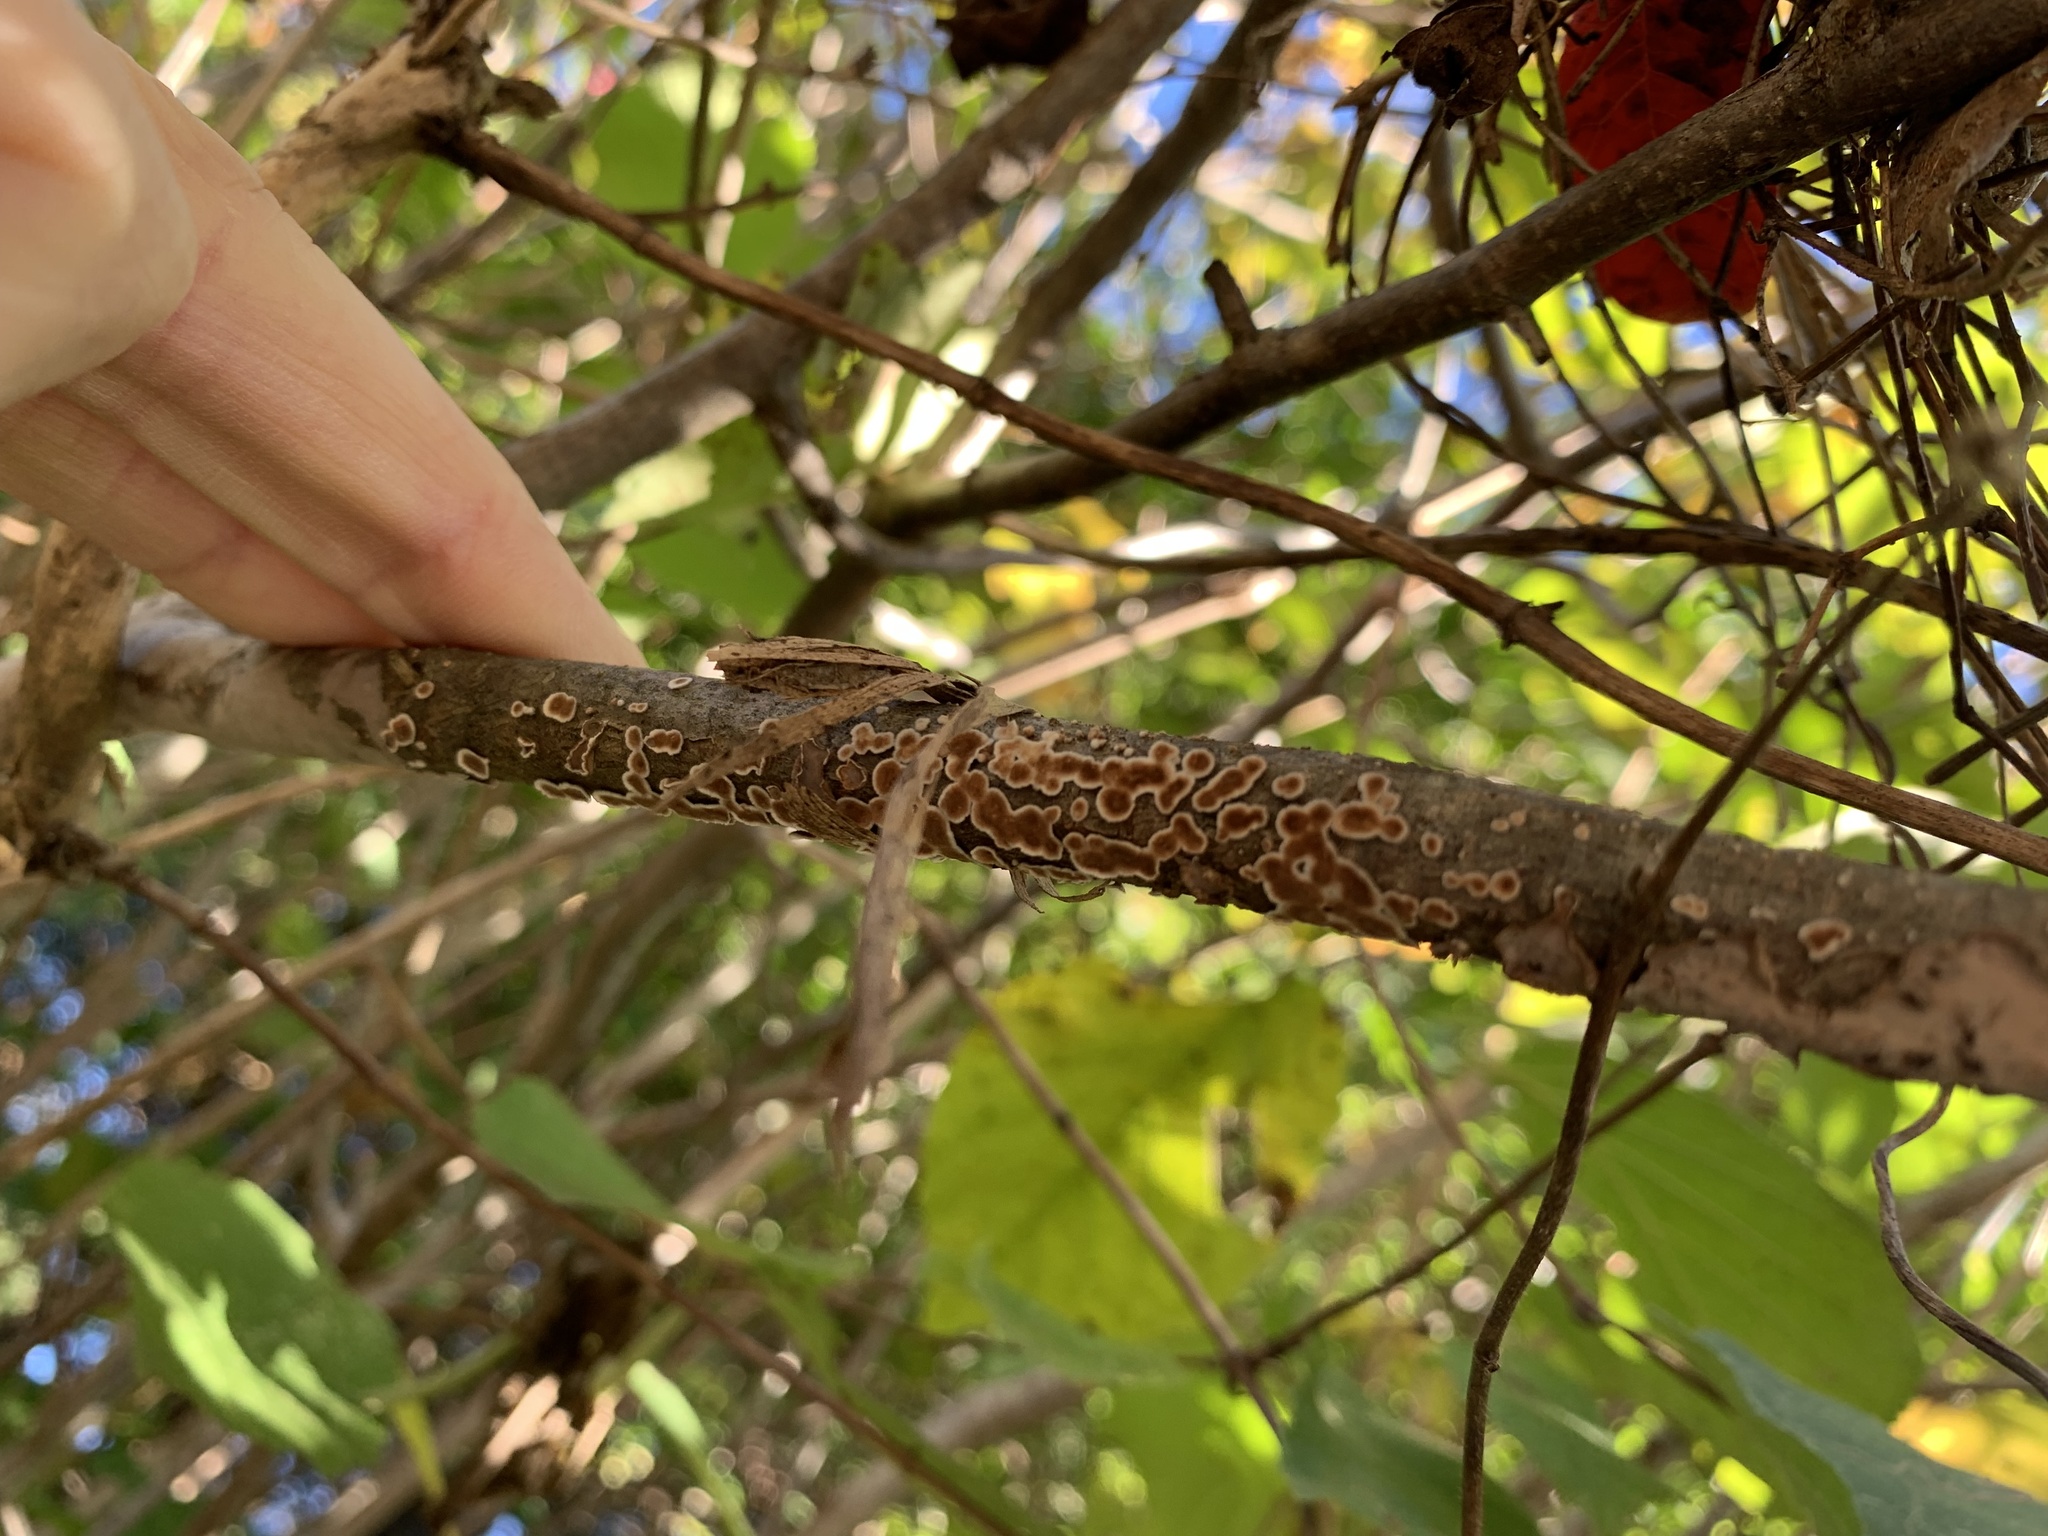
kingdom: Fungi
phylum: Basidiomycota
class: Agaricomycetes
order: Russulales
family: Peniophoraceae
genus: Peniophora
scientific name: Peniophora albobadia
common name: Giraffe spots
